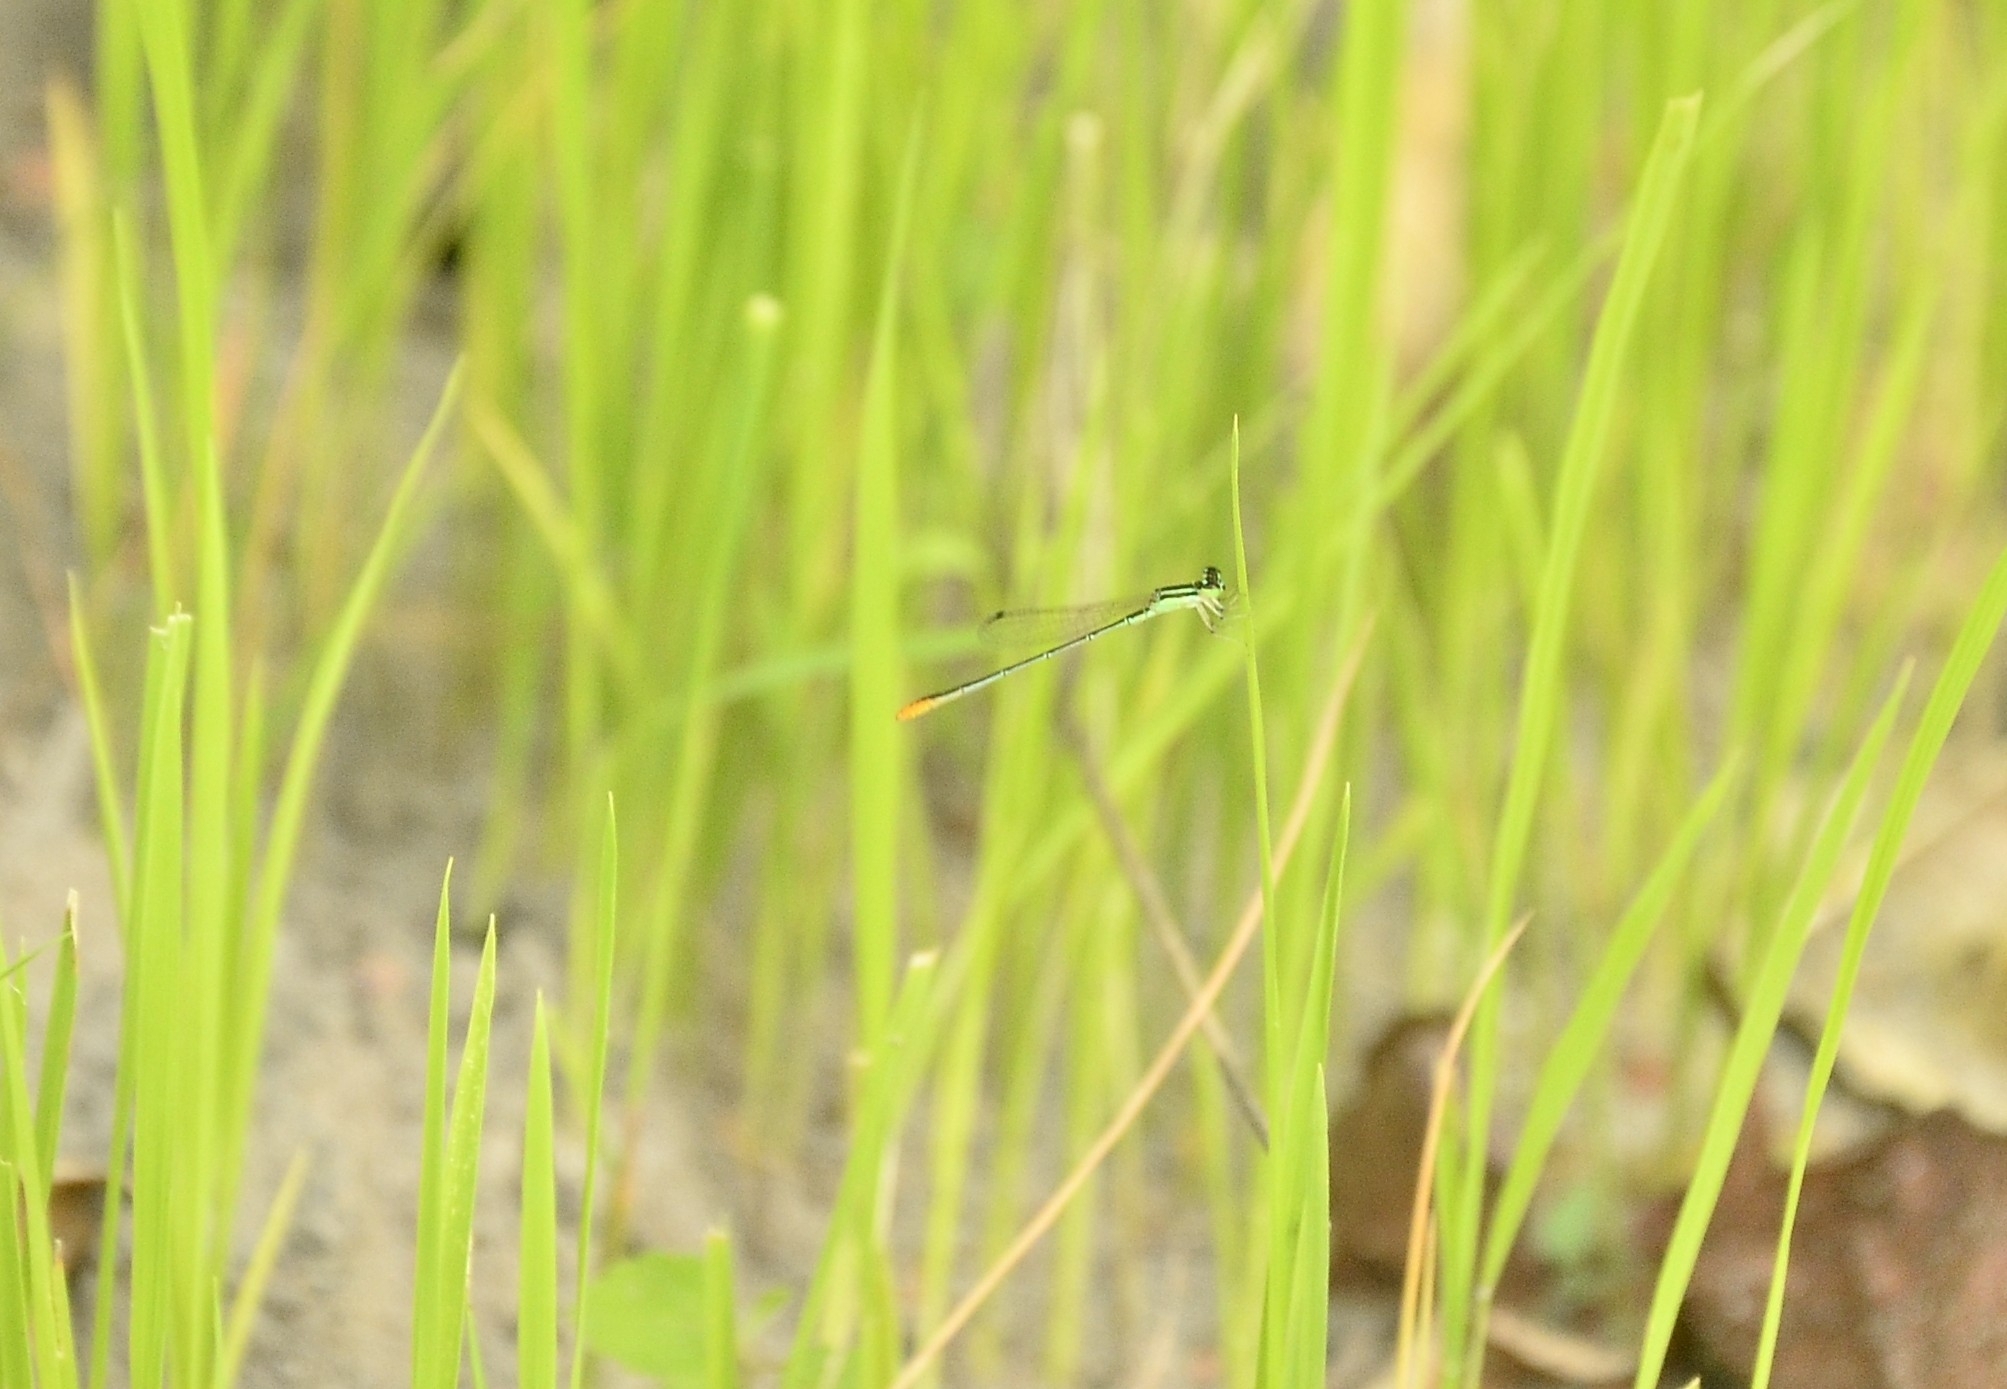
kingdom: Animalia
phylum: Arthropoda
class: Insecta
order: Odonata
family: Coenagrionidae
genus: Agriocnemis
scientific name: Agriocnemis pygmaea
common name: Pygmy wisp
